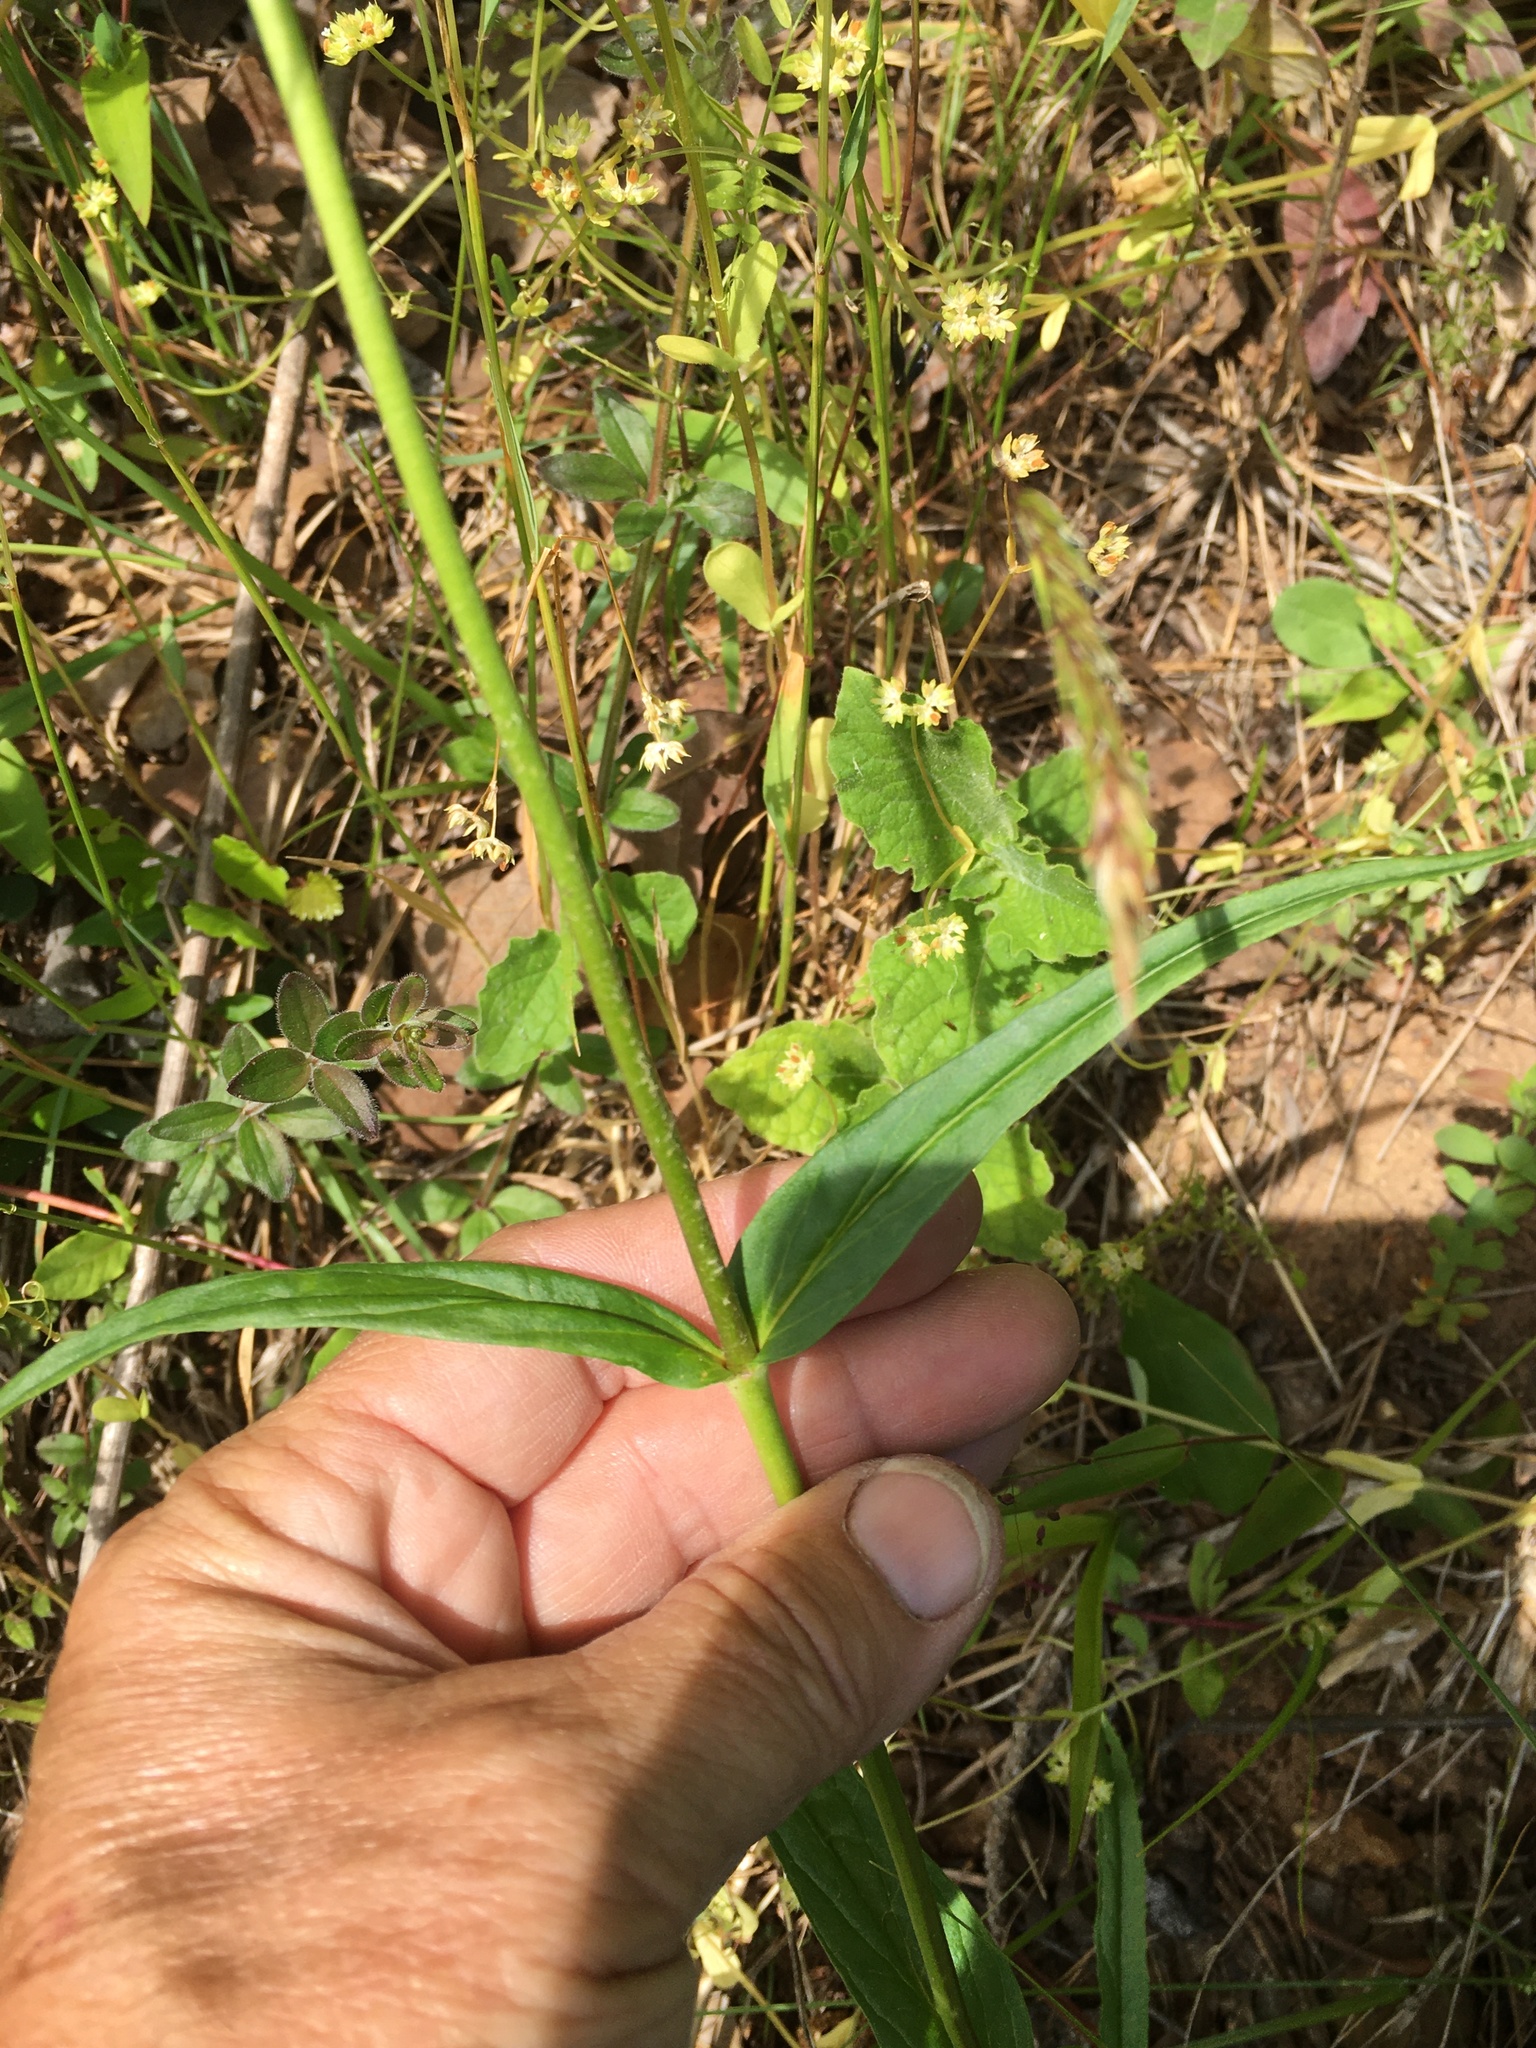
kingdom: Plantae
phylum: Tracheophyta
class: Magnoliopsida
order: Lamiales
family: Plantaginaceae
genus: Penstemon
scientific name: Penstemon laevigatus
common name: Eastern beardtongue
